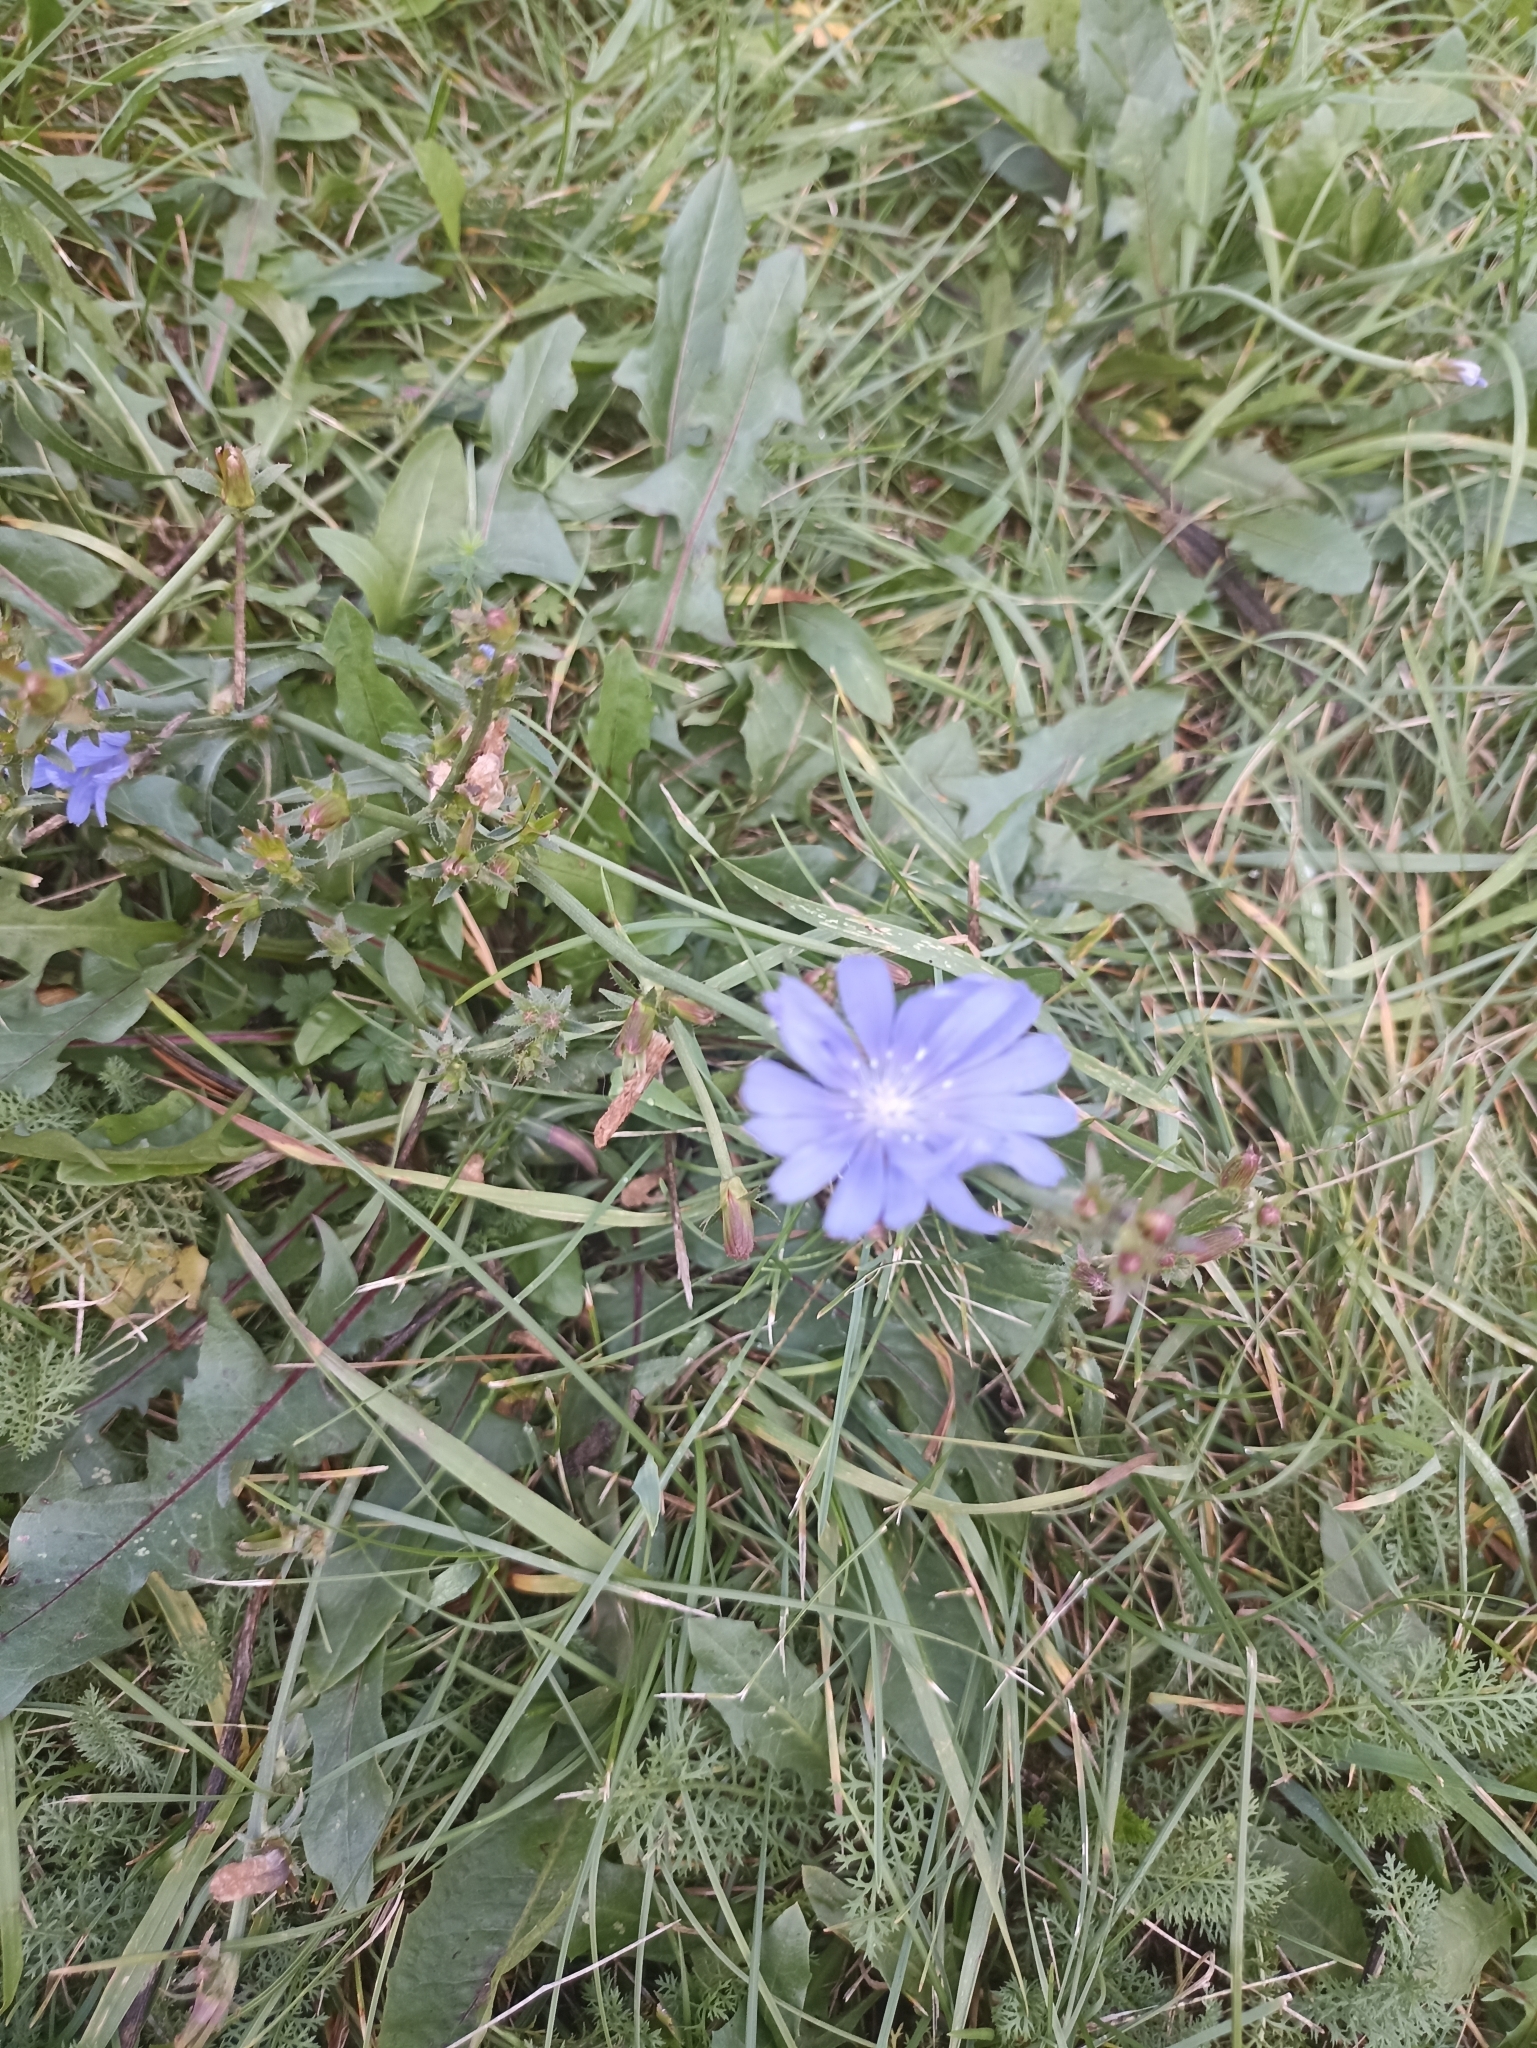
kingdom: Plantae
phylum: Tracheophyta
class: Magnoliopsida
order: Asterales
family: Asteraceae
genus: Cichorium
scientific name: Cichorium intybus
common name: Chicory
